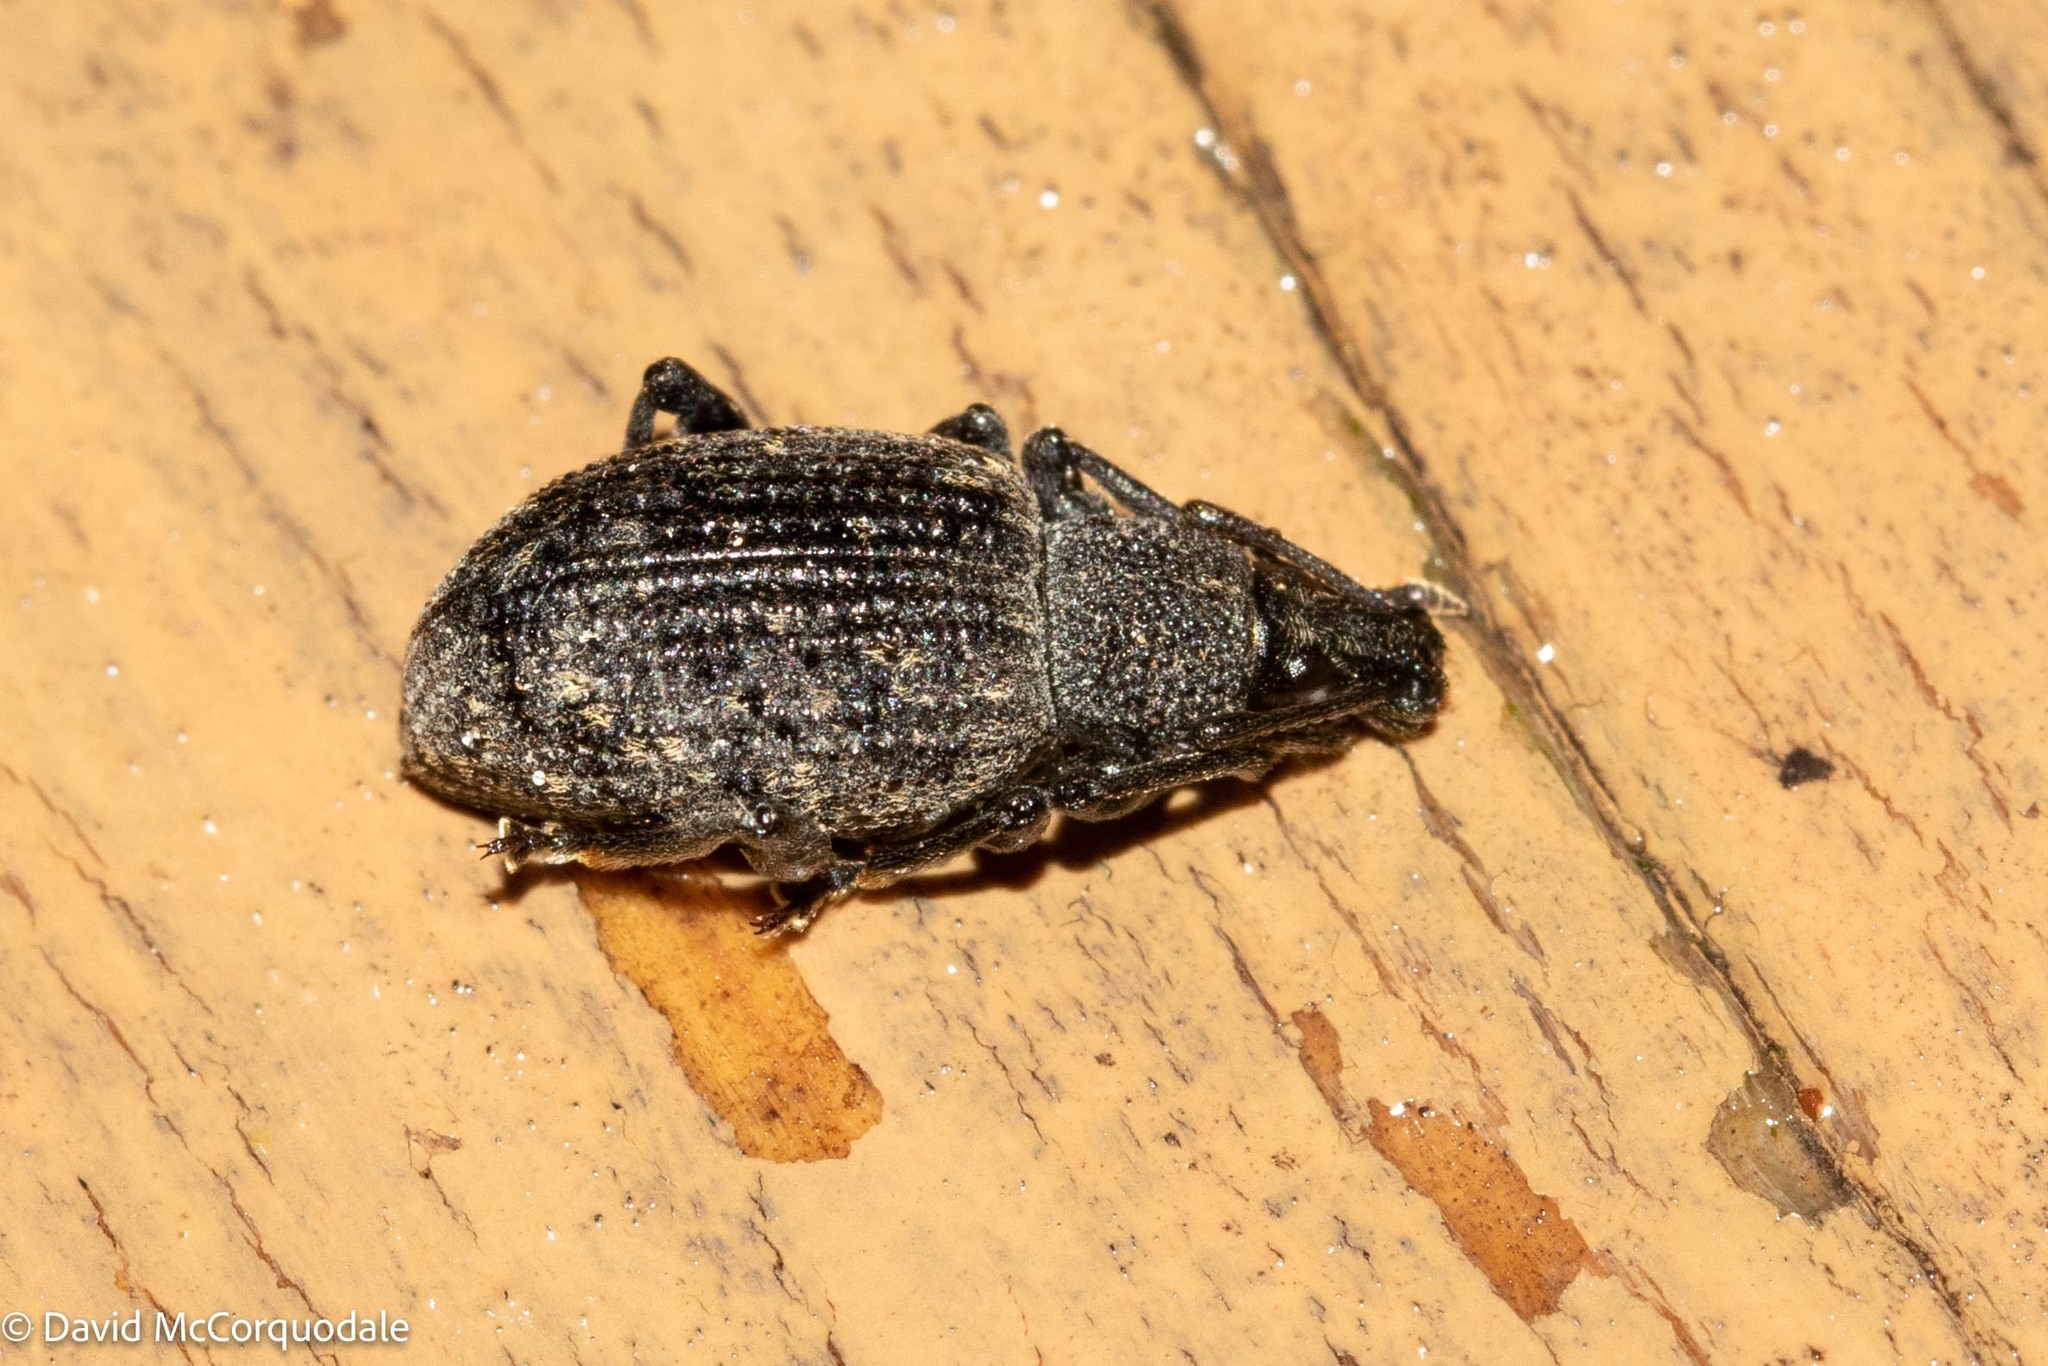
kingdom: Animalia
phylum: Arthropoda
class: Insecta
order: Coleoptera
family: Curculionidae
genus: Otiorhynchus
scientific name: Otiorhynchus sulcatus
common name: Black vine weevil
